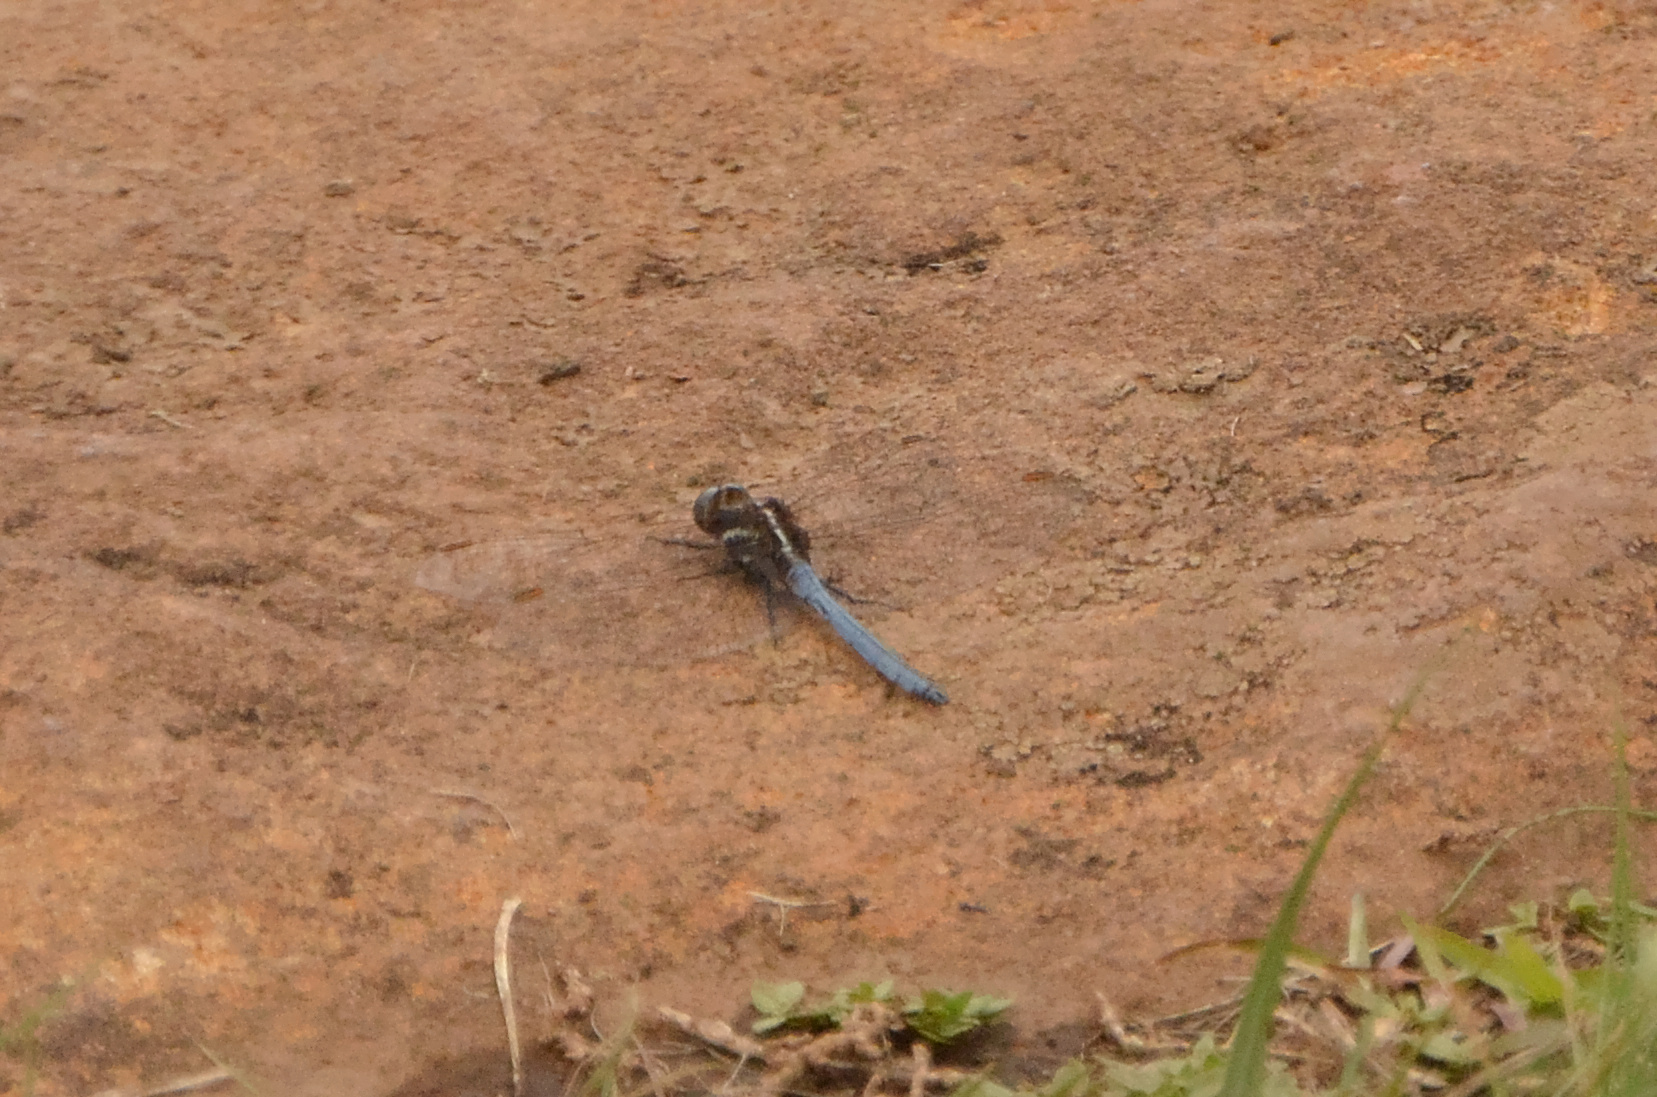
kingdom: Animalia
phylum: Arthropoda
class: Insecta
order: Odonata
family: Libellulidae
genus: Orthetrum
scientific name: Orthetrum caffrum
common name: Two-striped skimmer
